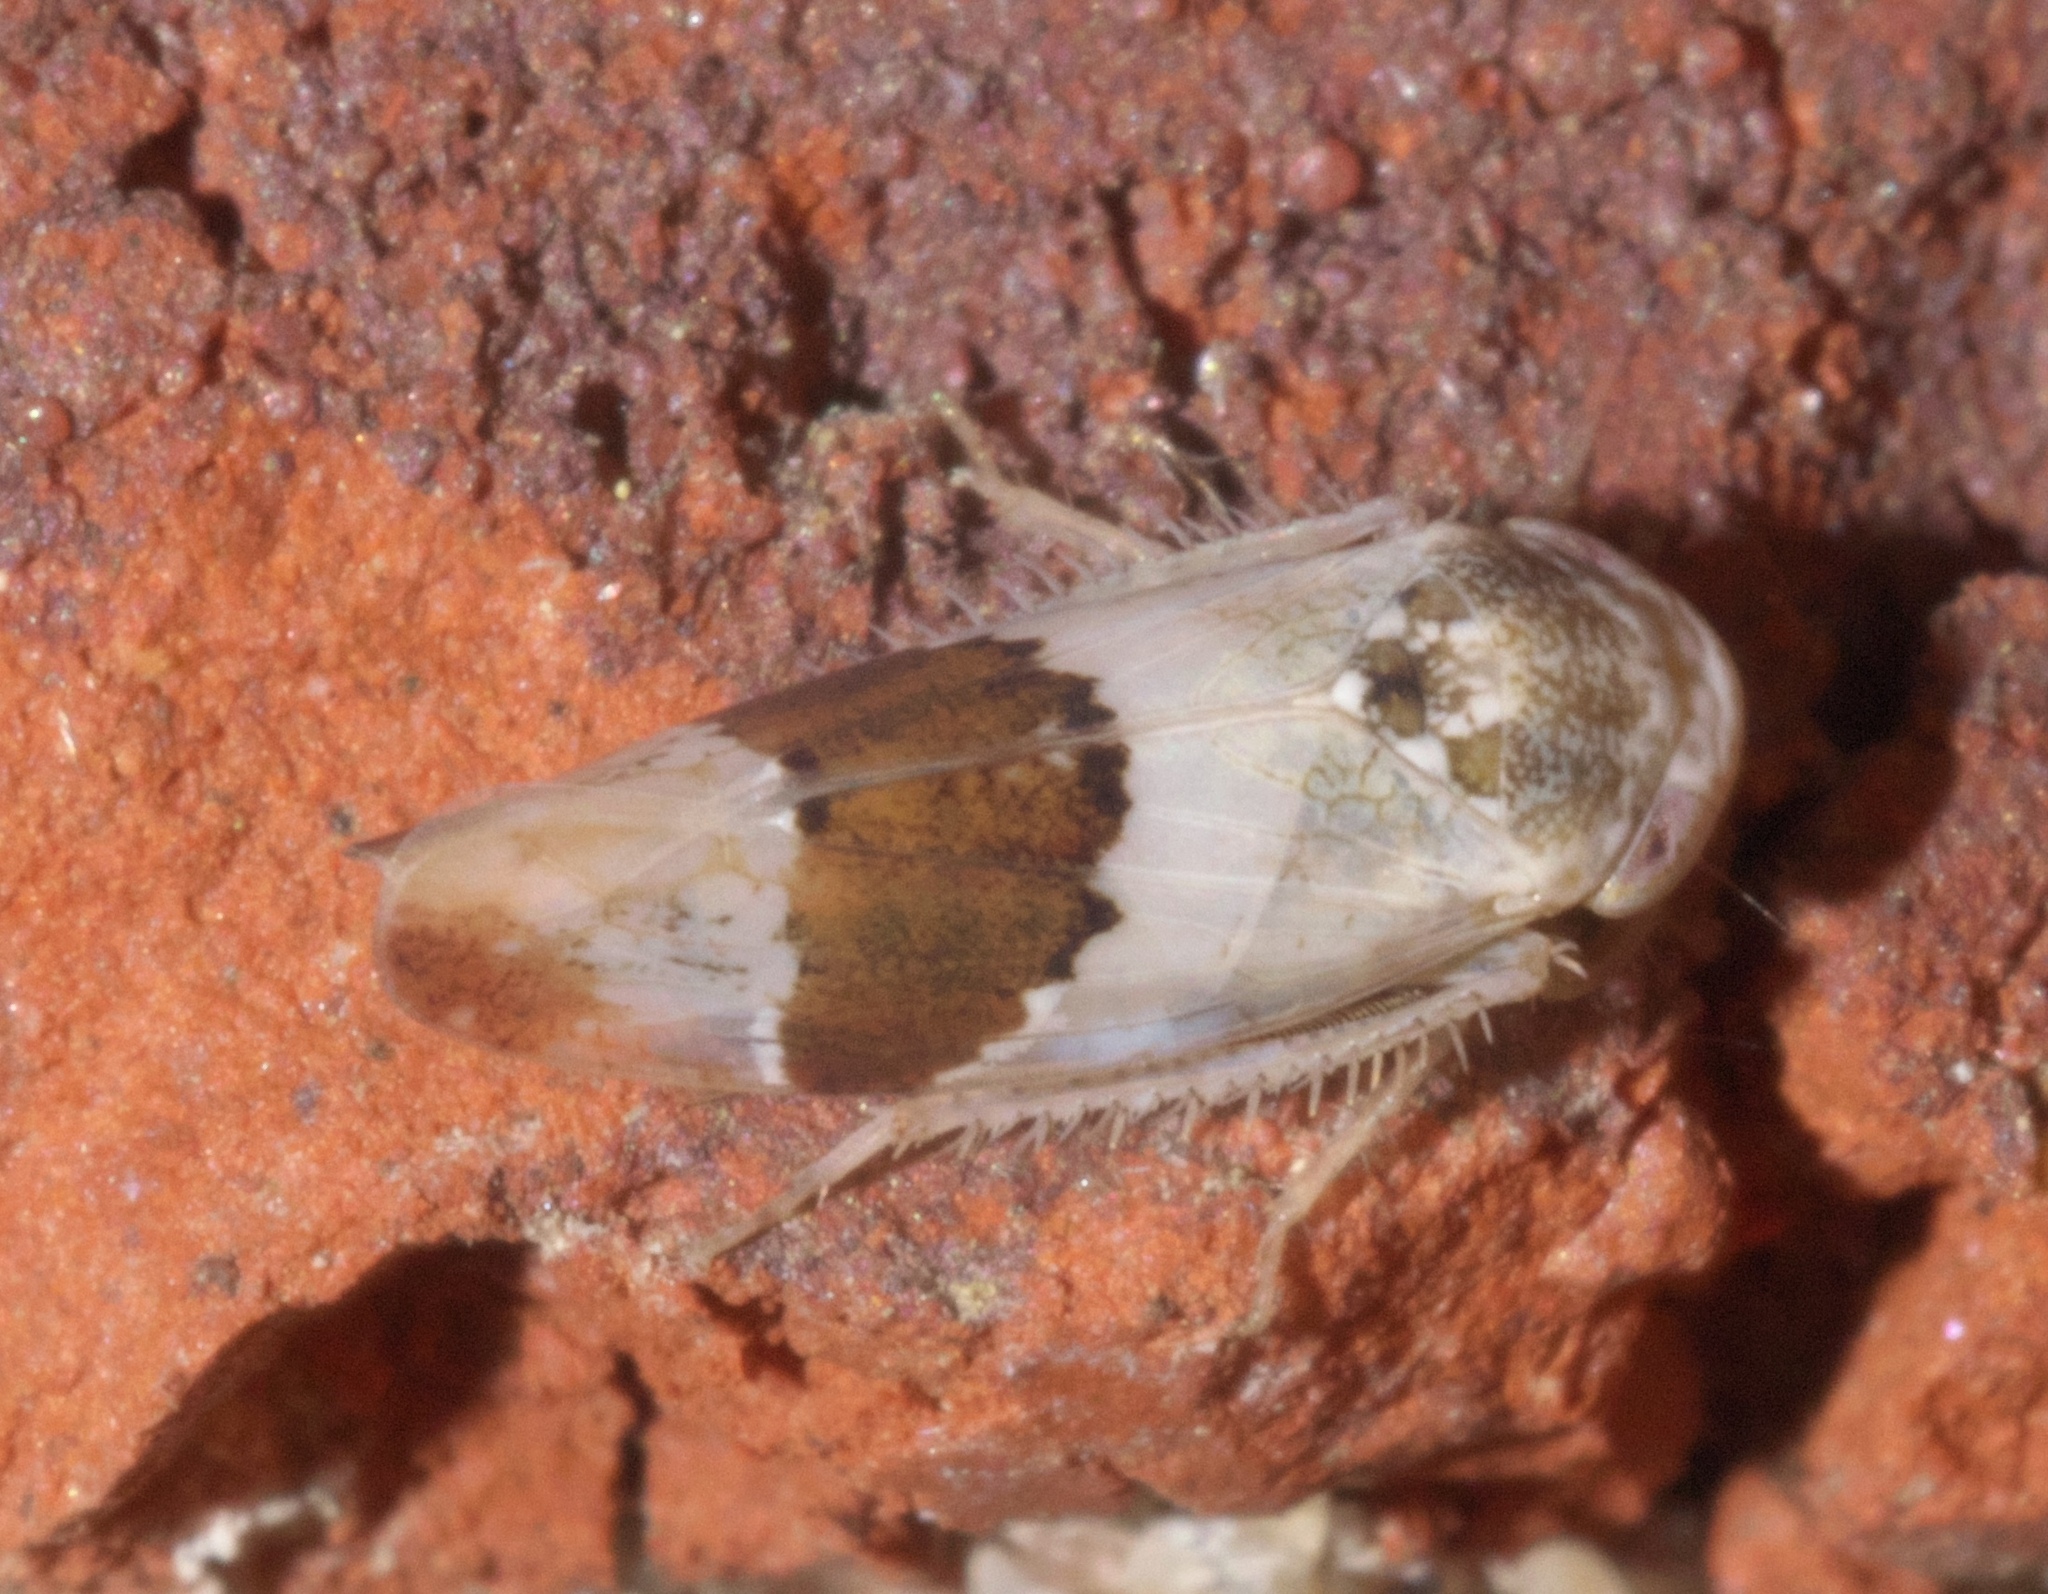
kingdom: Animalia
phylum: Arthropoda
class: Insecta
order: Hemiptera
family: Cicadellidae
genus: Norvellina
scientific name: Norvellina seminuda
